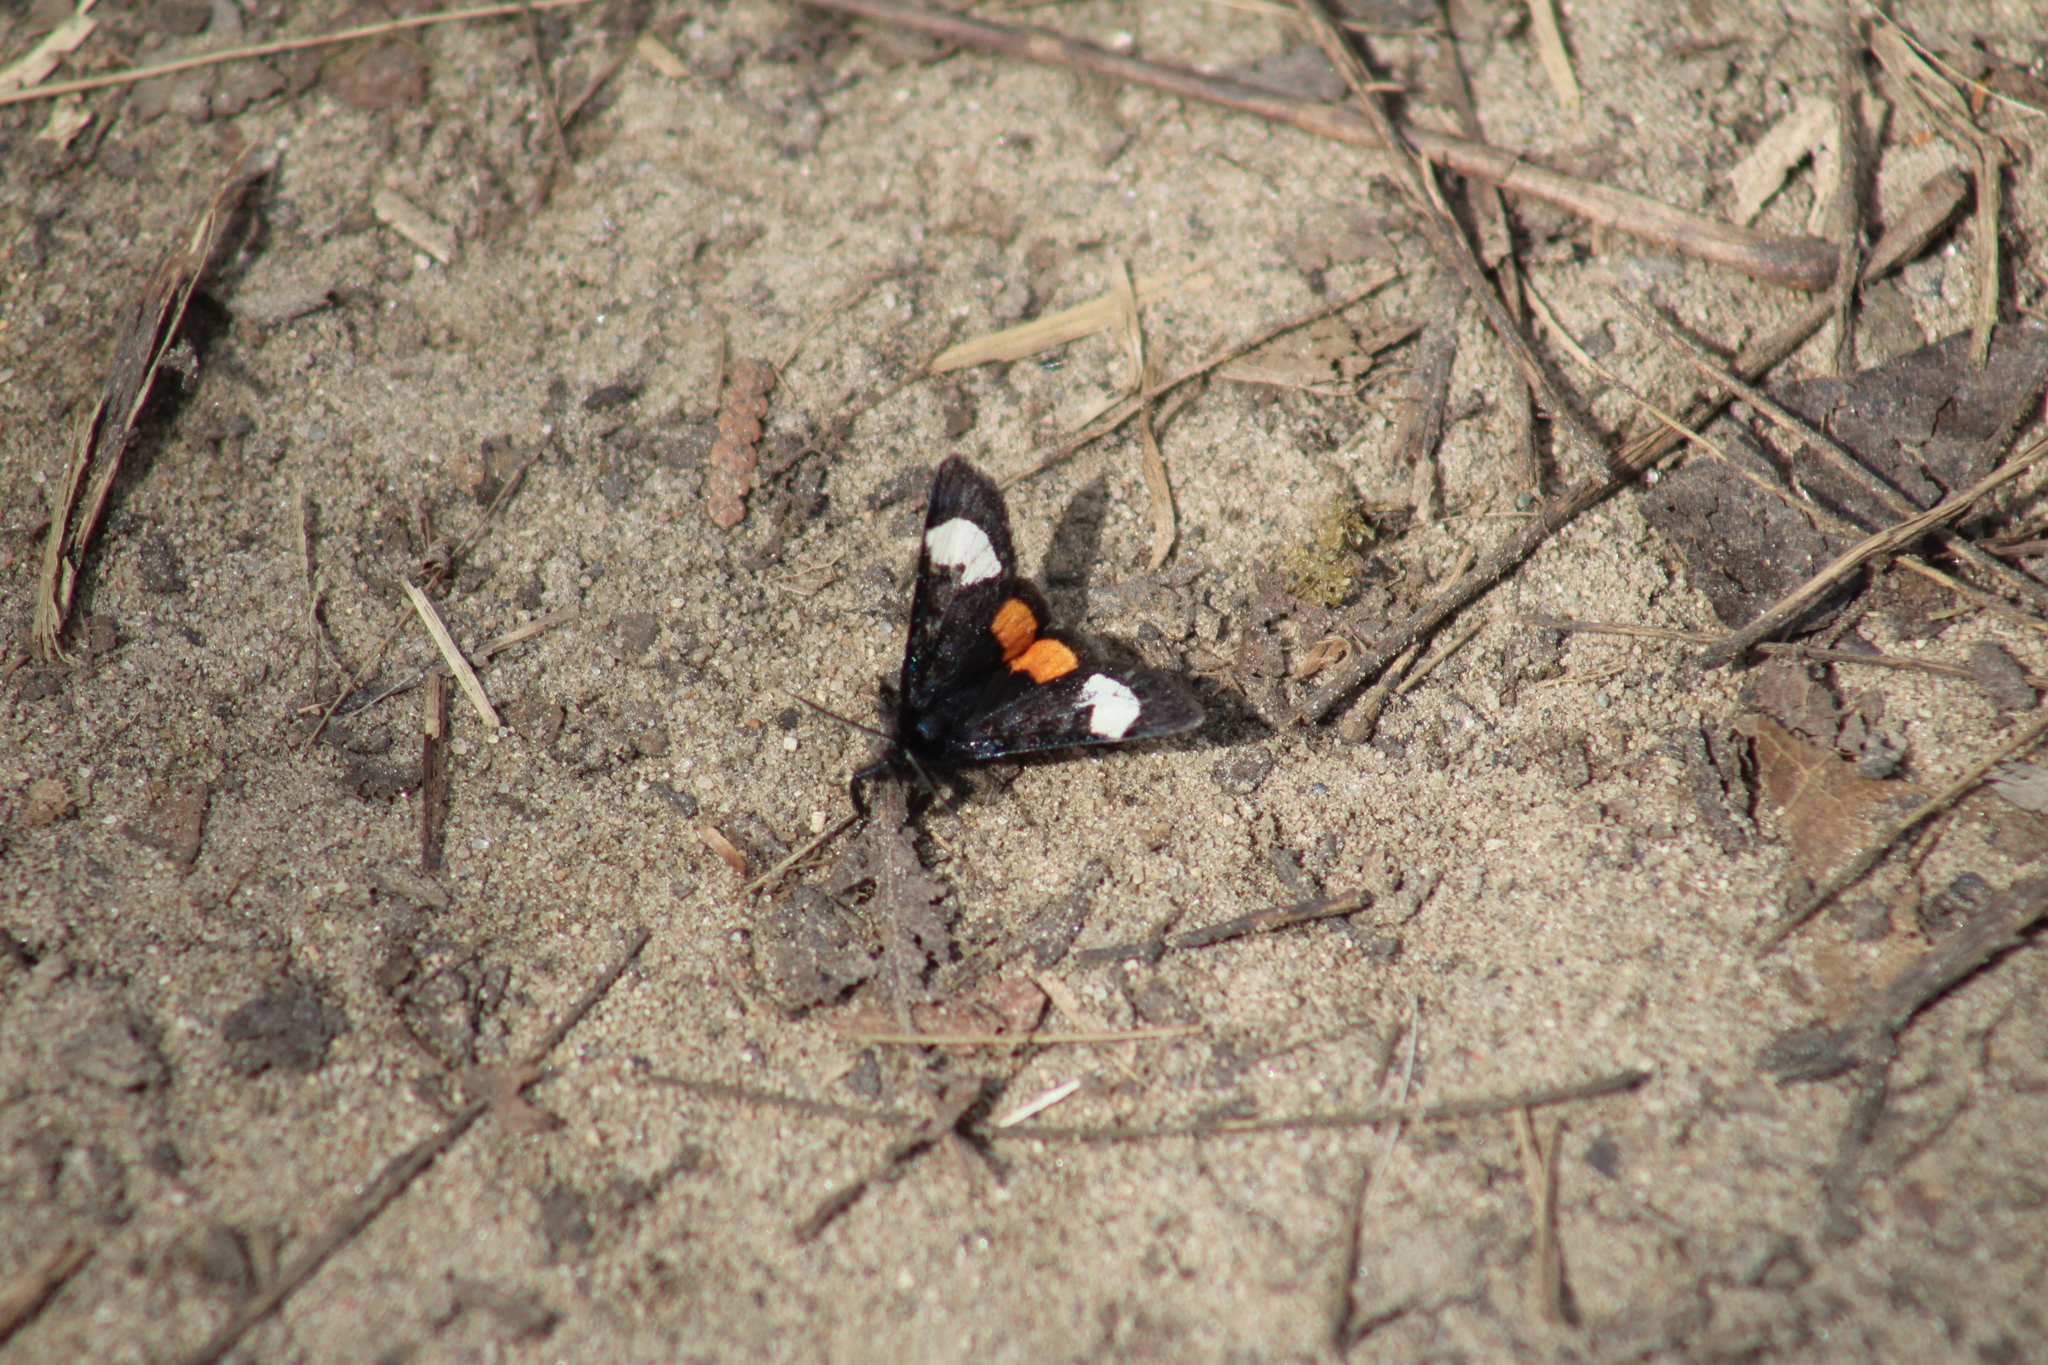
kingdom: Animalia
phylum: Arthropoda
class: Insecta
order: Lepidoptera
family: Noctuidae
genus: Psychomorpha
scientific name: Psychomorpha epimenis
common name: Grapevine epimenis moth
